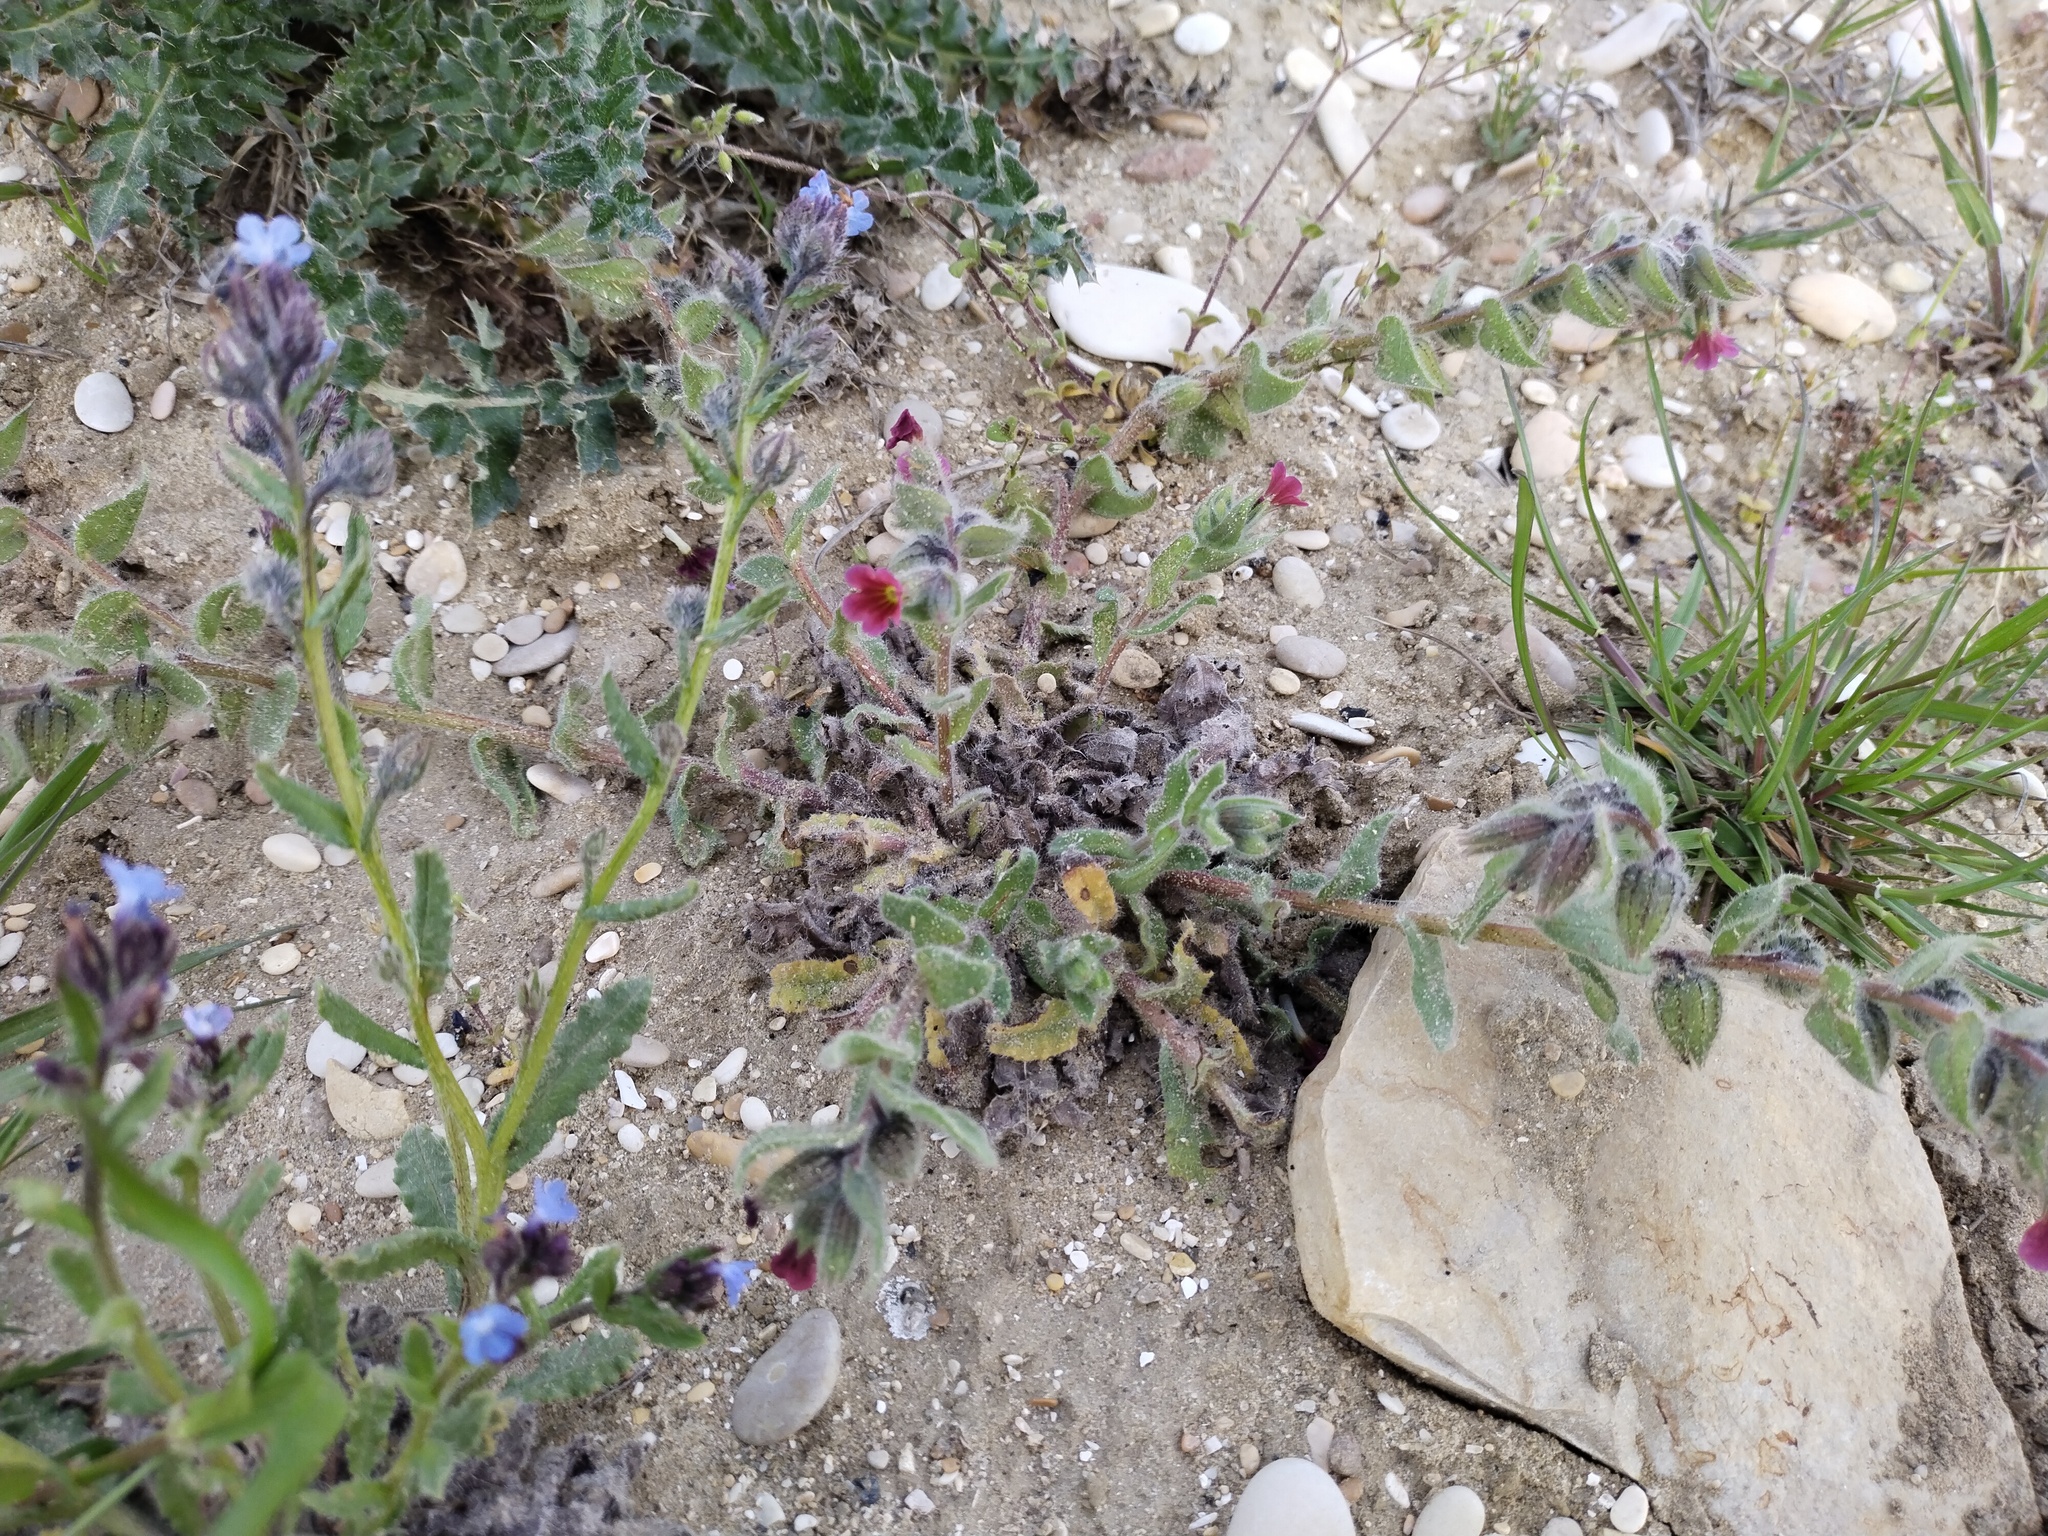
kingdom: Plantae
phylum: Tracheophyta
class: Magnoliopsida
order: Boraginales
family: Boraginaceae
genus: Nonea
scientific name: Nonea rosea
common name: Pink nonea
